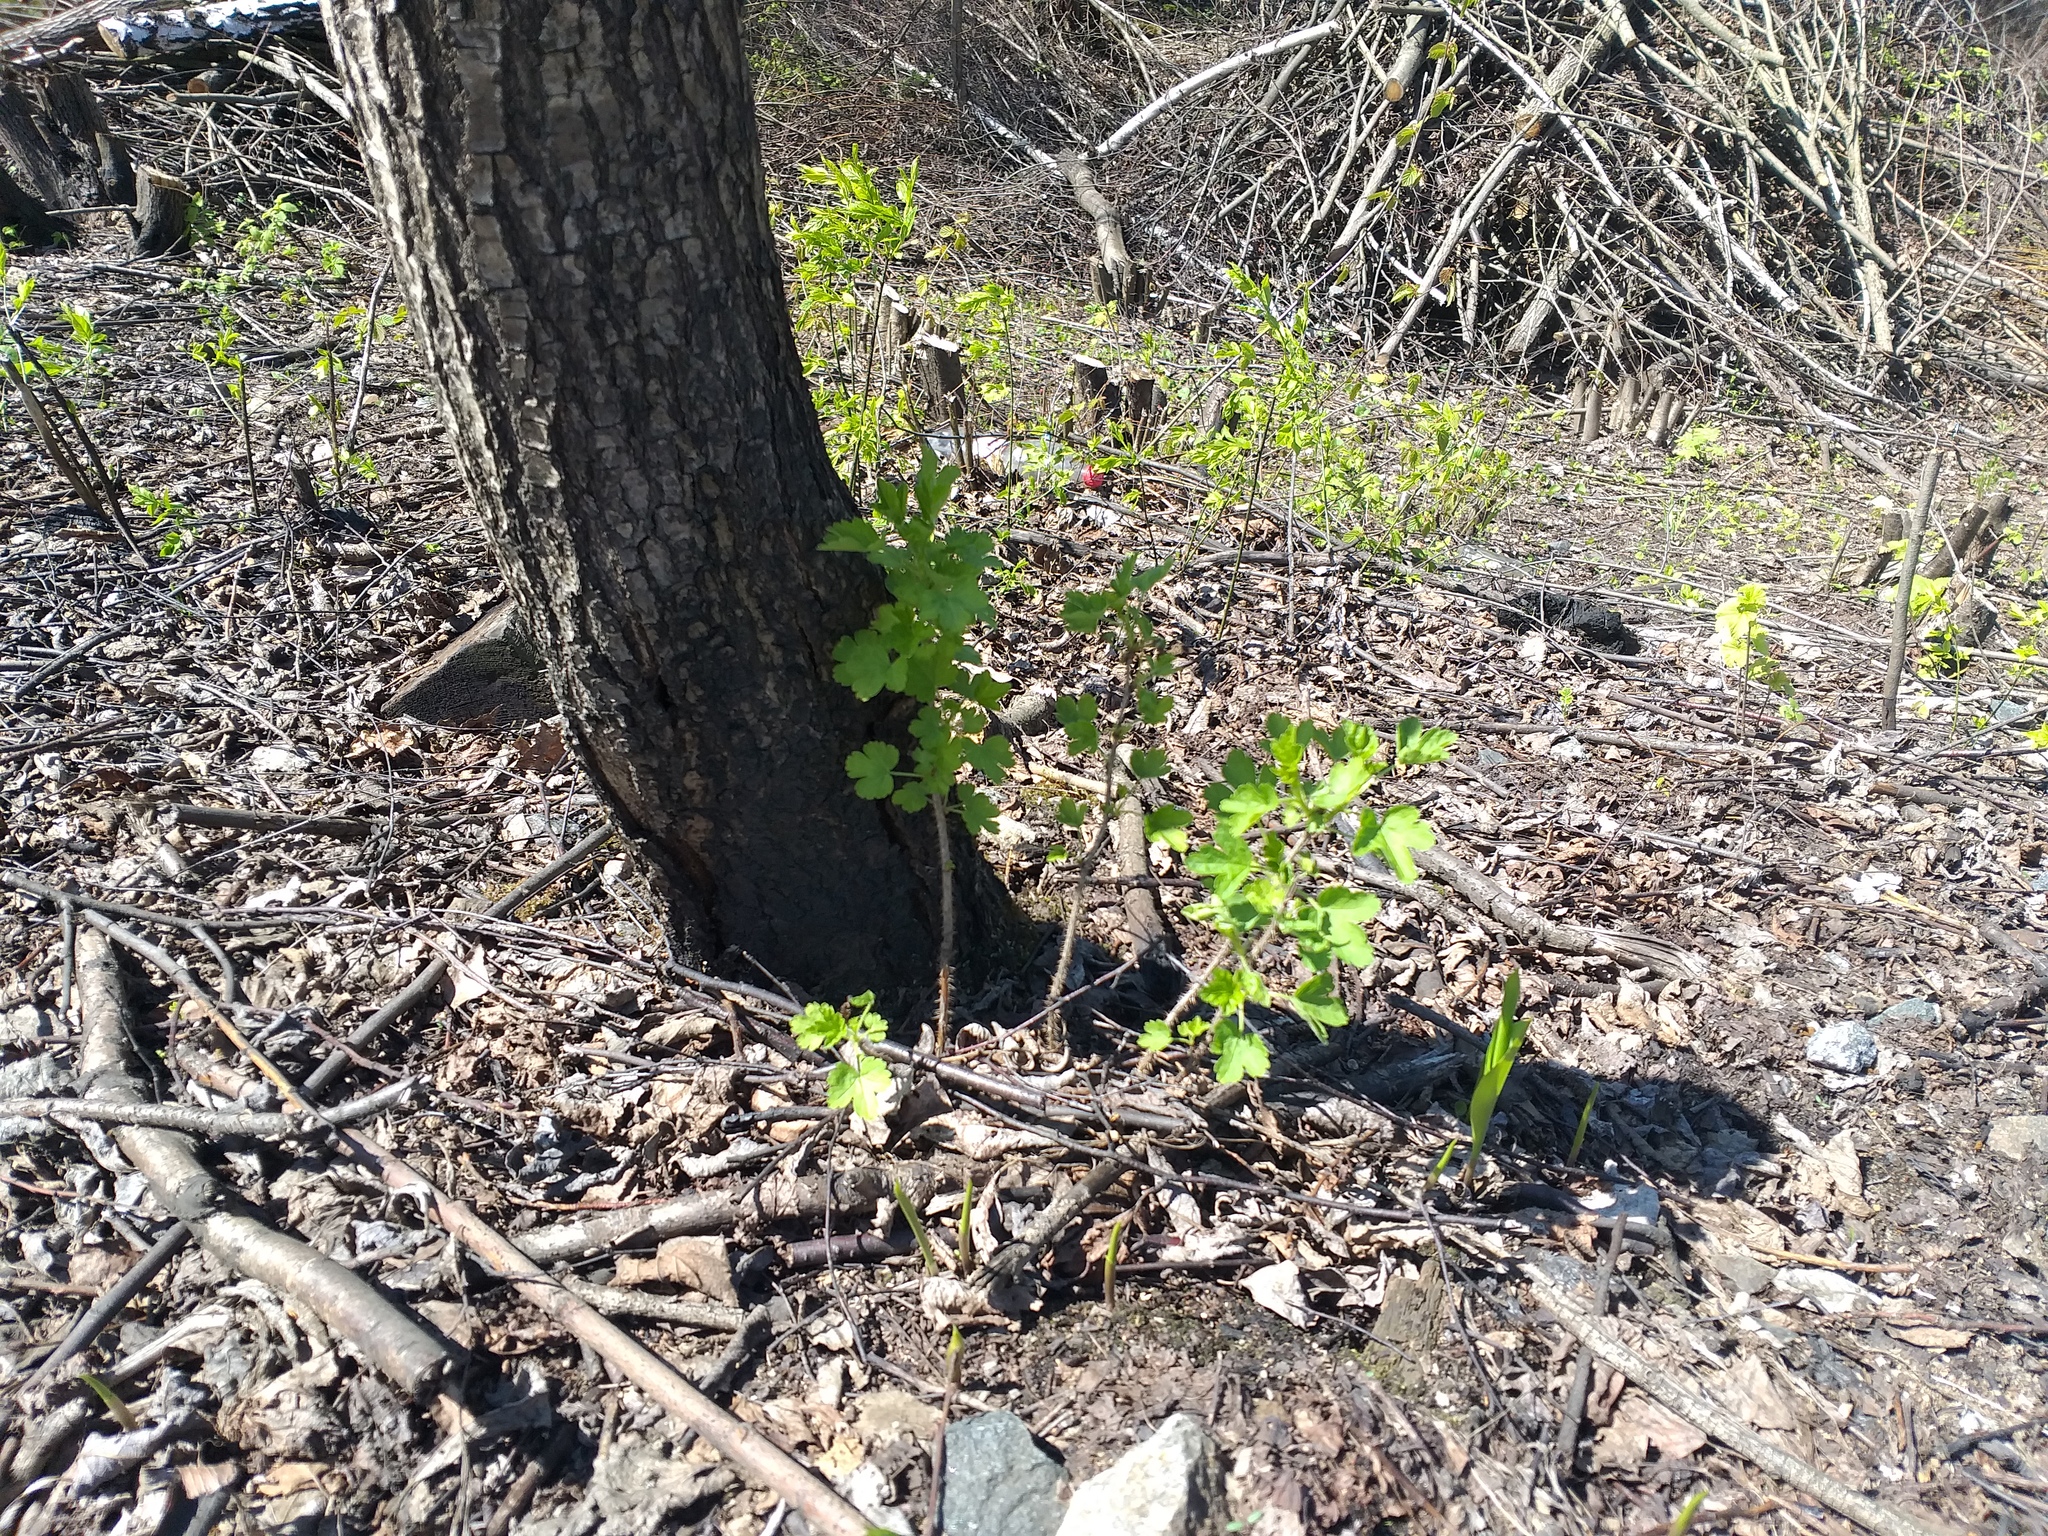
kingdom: Plantae
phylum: Tracheophyta
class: Magnoliopsida
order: Saxifragales
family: Grossulariaceae
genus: Ribes
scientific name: Ribes uva-crispa
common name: Gooseberry
